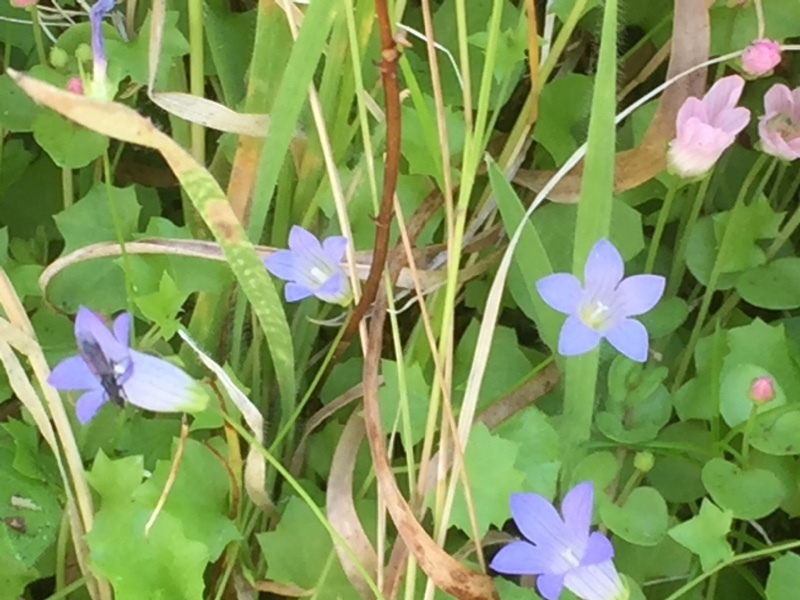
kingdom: Plantae
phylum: Tracheophyta
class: Magnoliopsida
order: Asterales
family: Campanulaceae
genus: Hesperocodon
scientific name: Hesperocodon hederaceus
